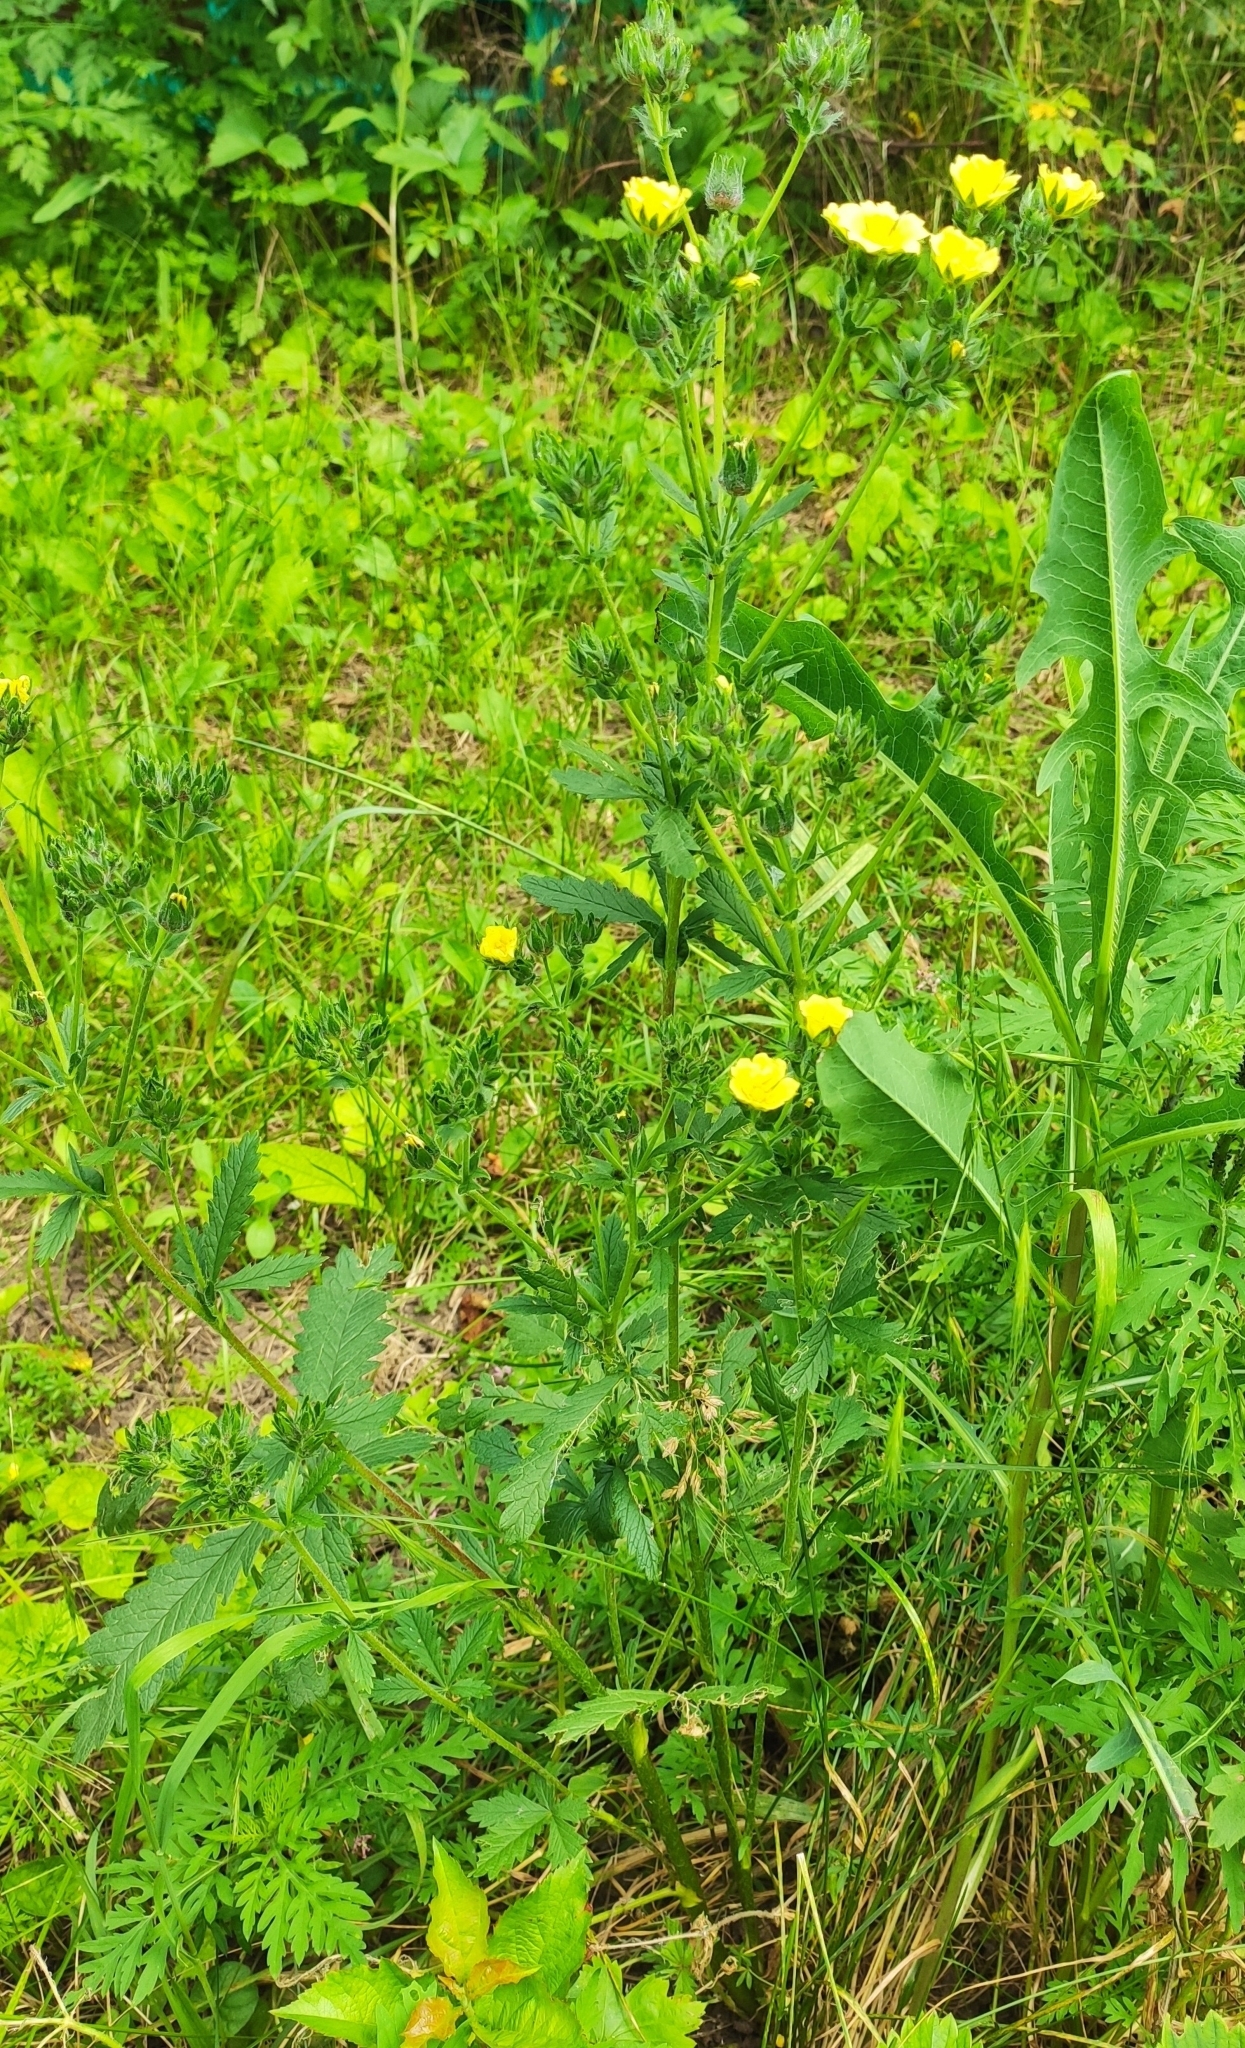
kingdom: Plantae
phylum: Tracheophyta
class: Magnoliopsida
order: Rosales
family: Rosaceae
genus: Potentilla
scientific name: Potentilla recta
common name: Sulphur cinquefoil
